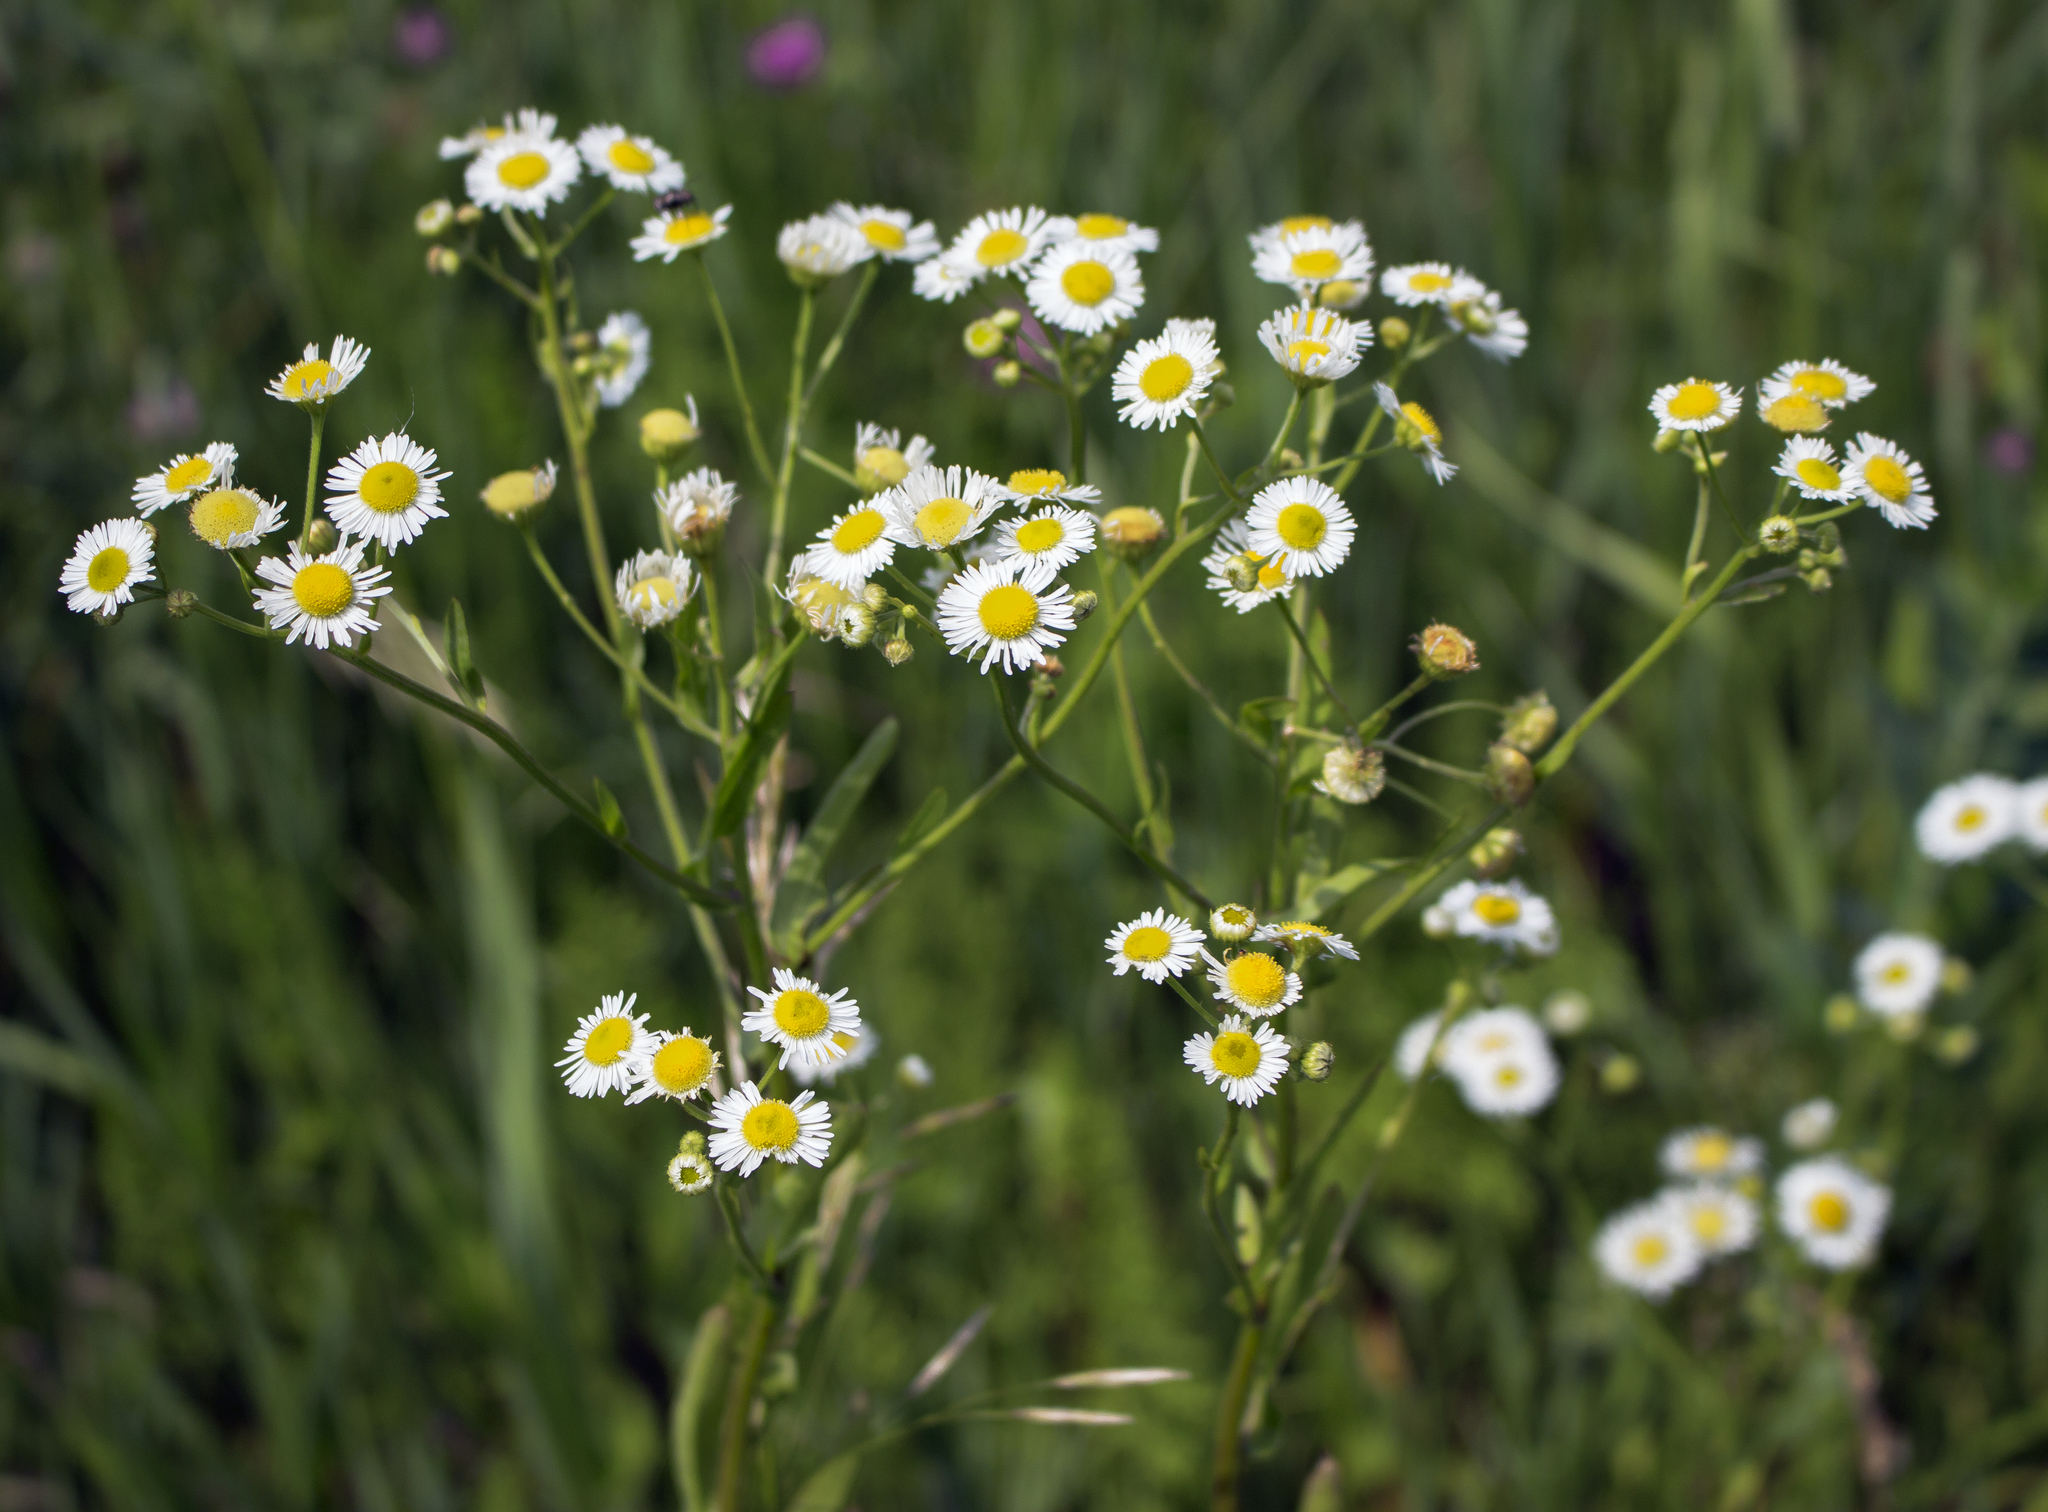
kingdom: Plantae
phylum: Tracheophyta
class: Magnoliopsida
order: Asterales
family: Asteraceae
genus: Erigeron
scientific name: Erigeron annuus
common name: Tall fleabane
